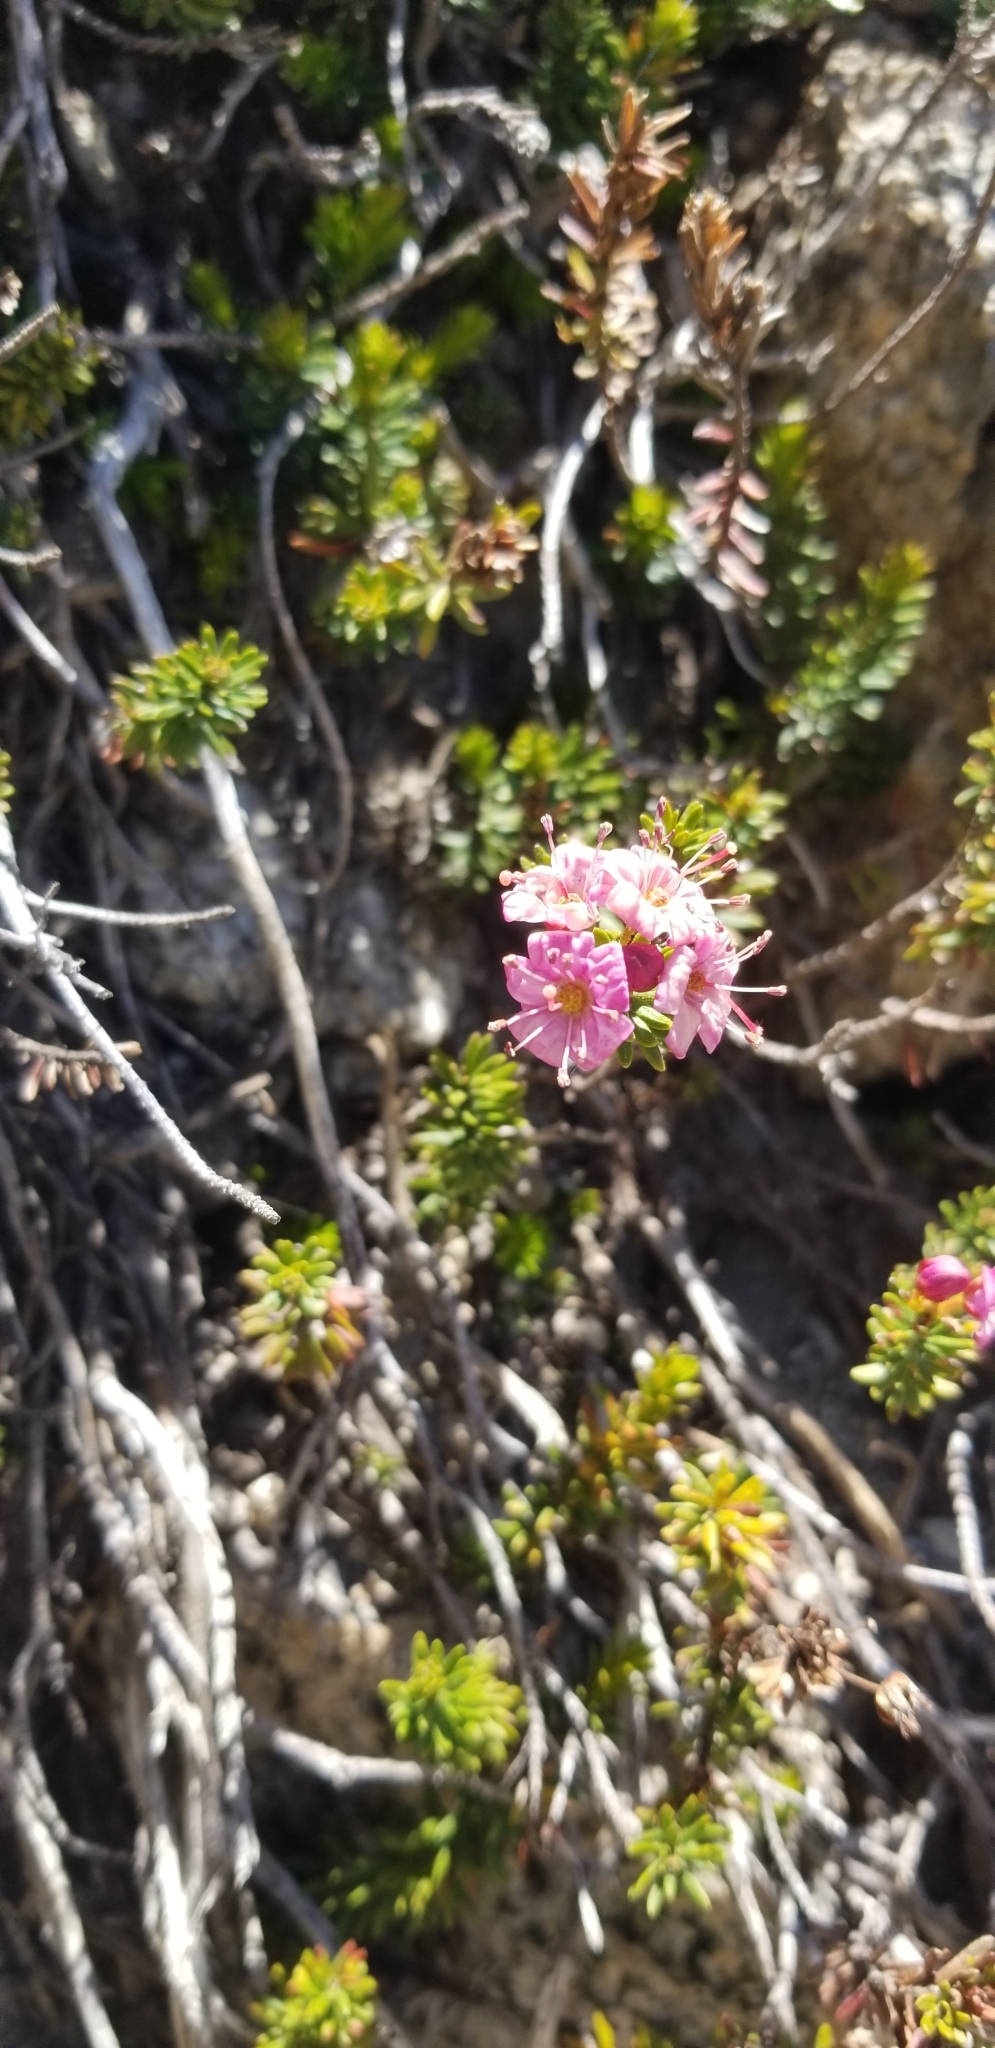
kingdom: Plantae
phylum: Tracheophyta
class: Magnoliopsida
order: Ericales
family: Ericaceae
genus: Phyllodoce
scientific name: Phyllodoce breweri
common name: Brewer's mountain-heather
